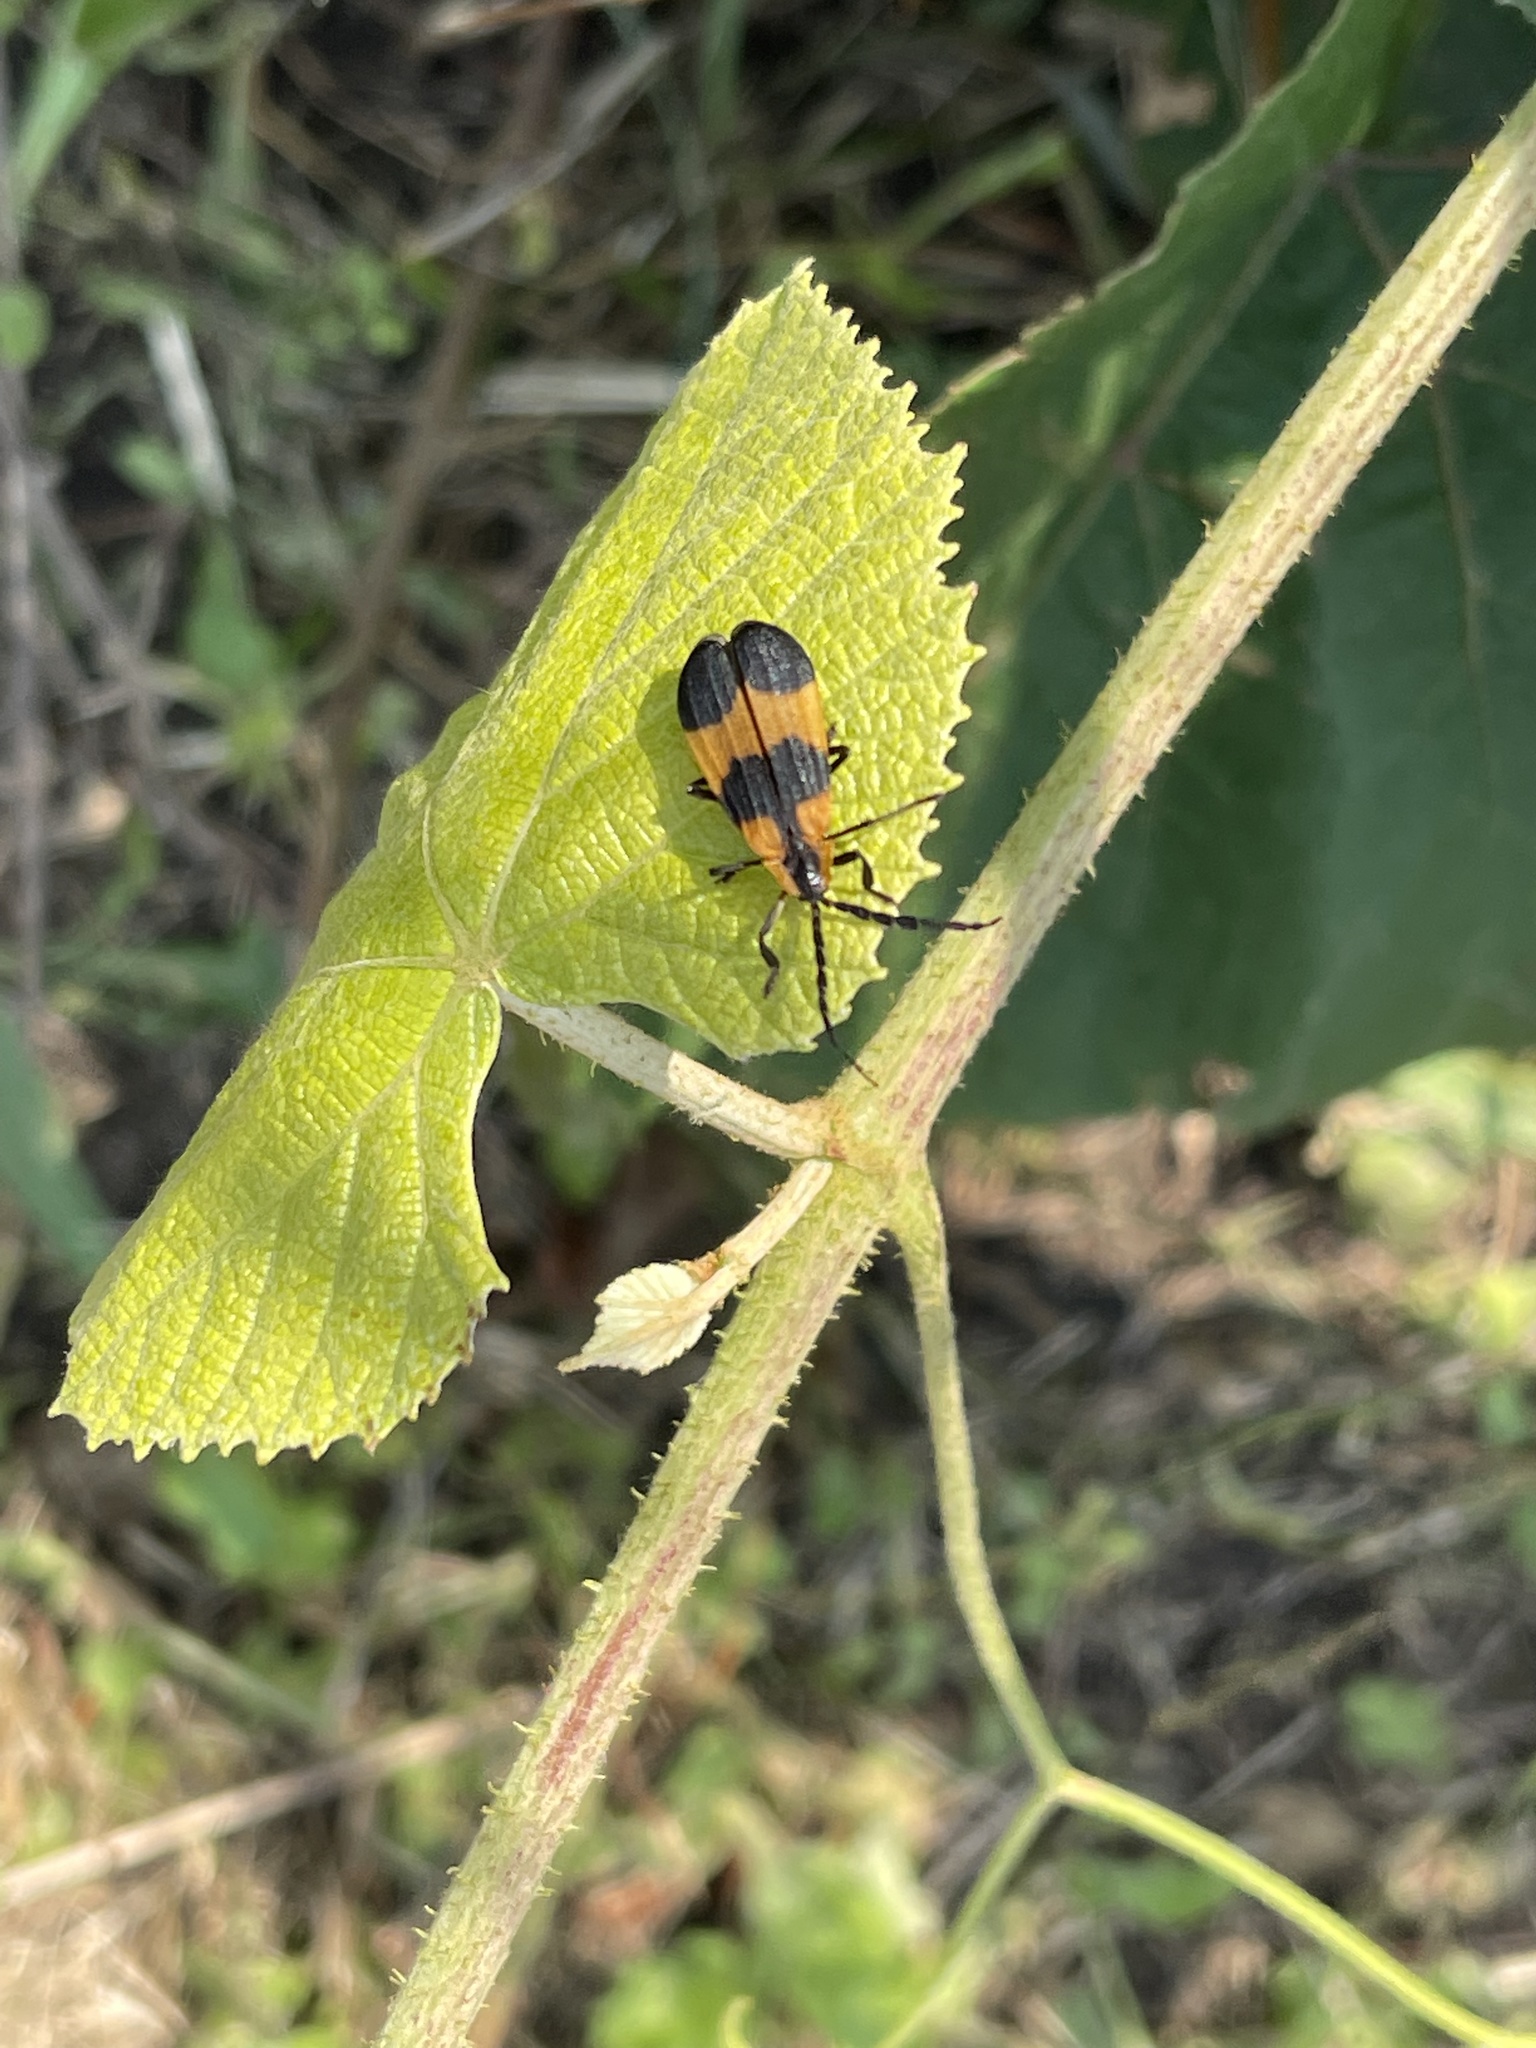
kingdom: Animalia
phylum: Arthropoda
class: Insecta
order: Coleoptera
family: Lycidae
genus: Calopteron
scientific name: Calopteron reticulatum
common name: Banded net-winged beetle
